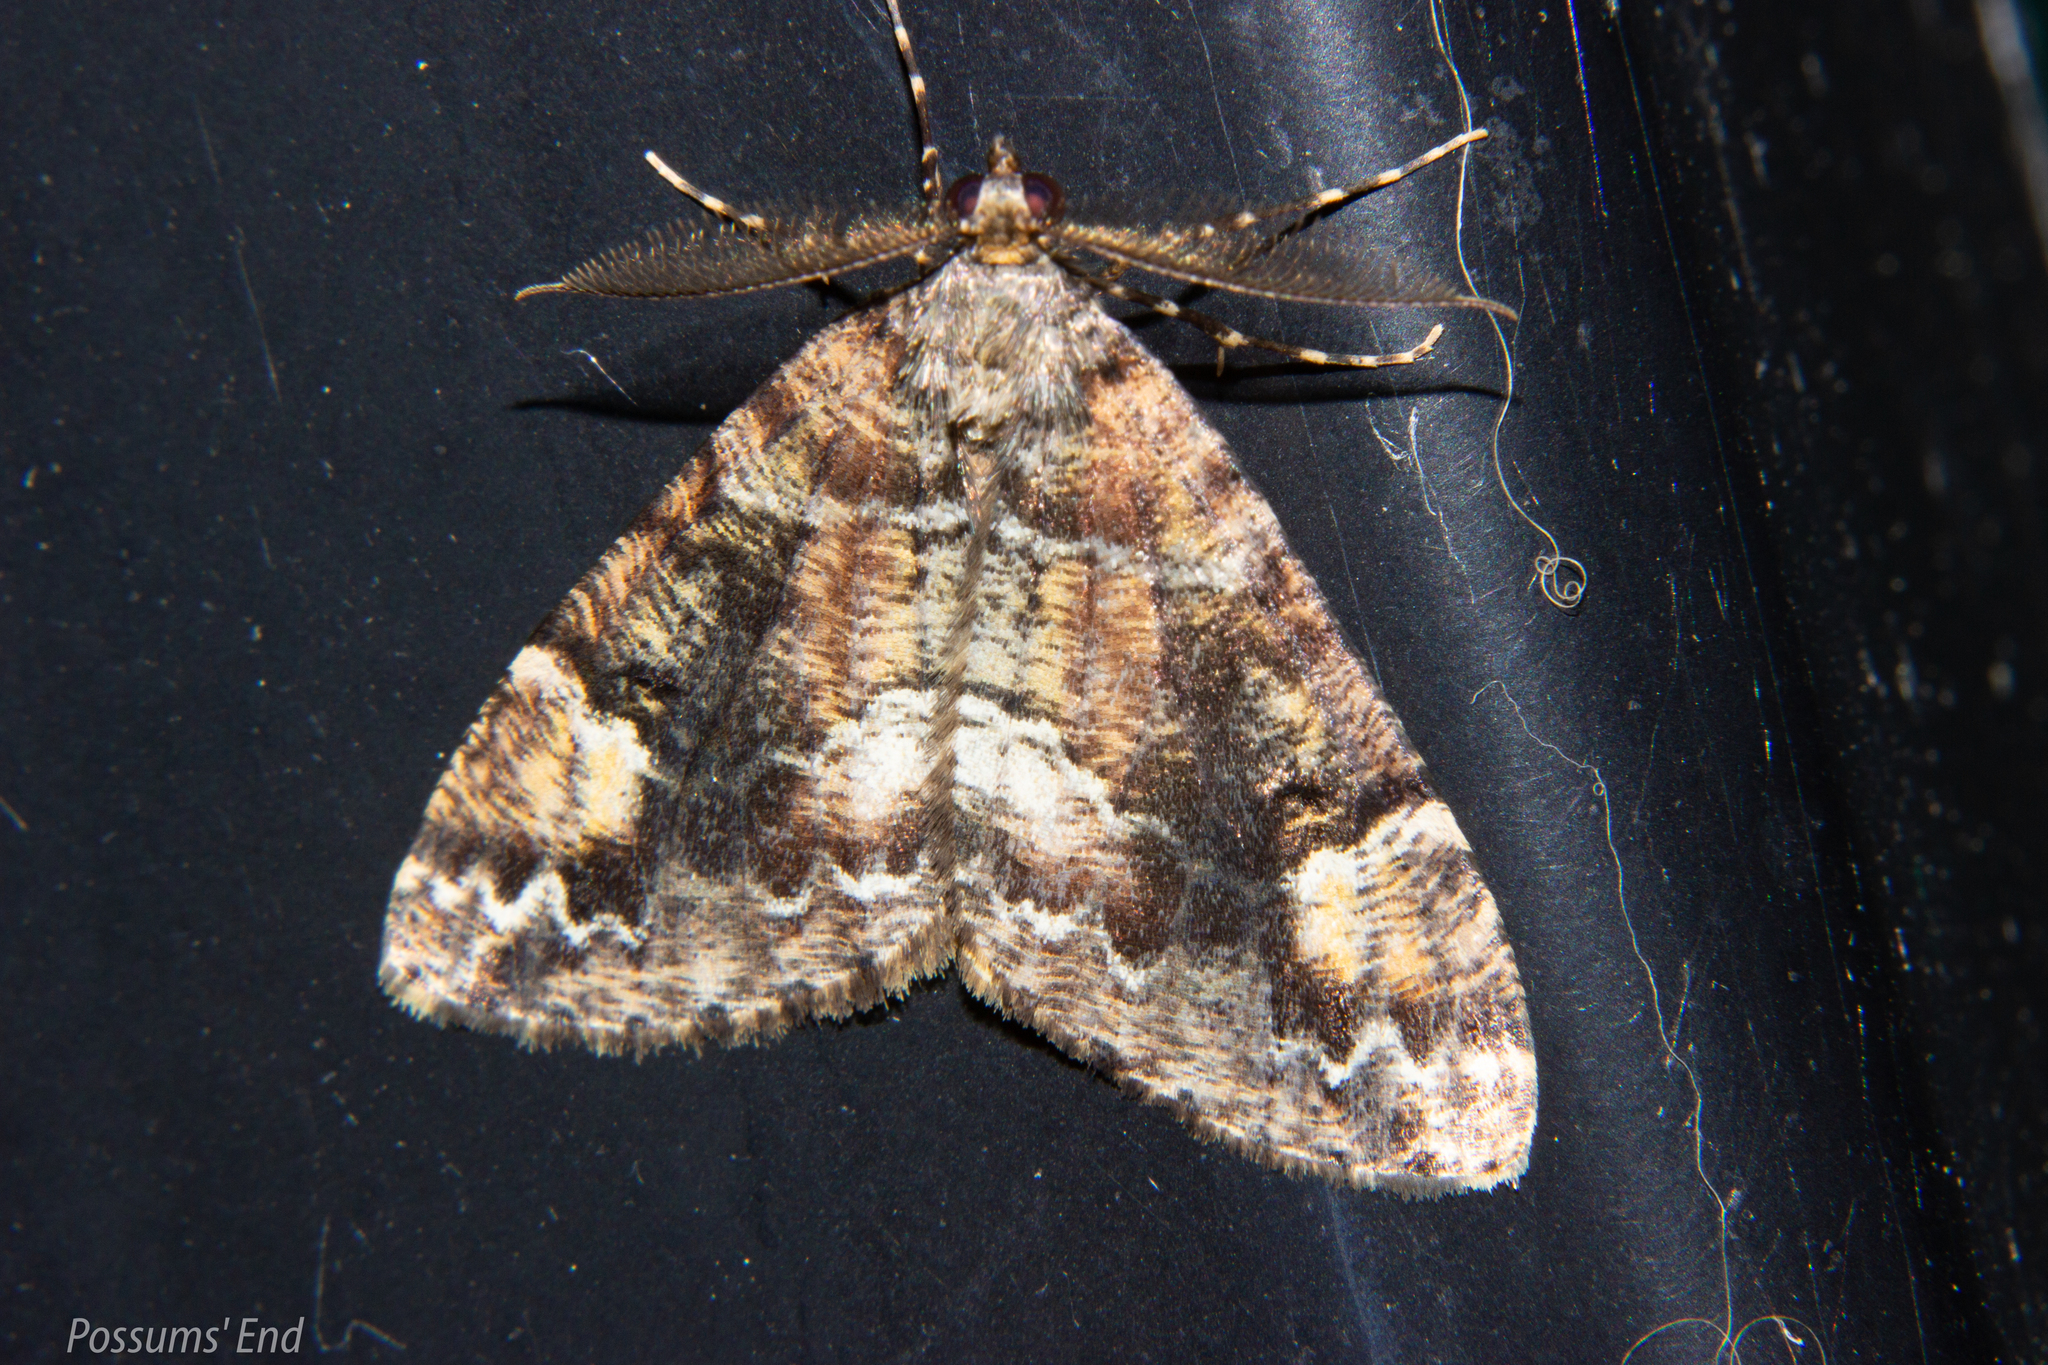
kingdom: Animalia
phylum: Arthropoda
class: Insecta
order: Lepidoptera
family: Geometridae
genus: Pseudocoremia
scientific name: Pseudocoremia productata
